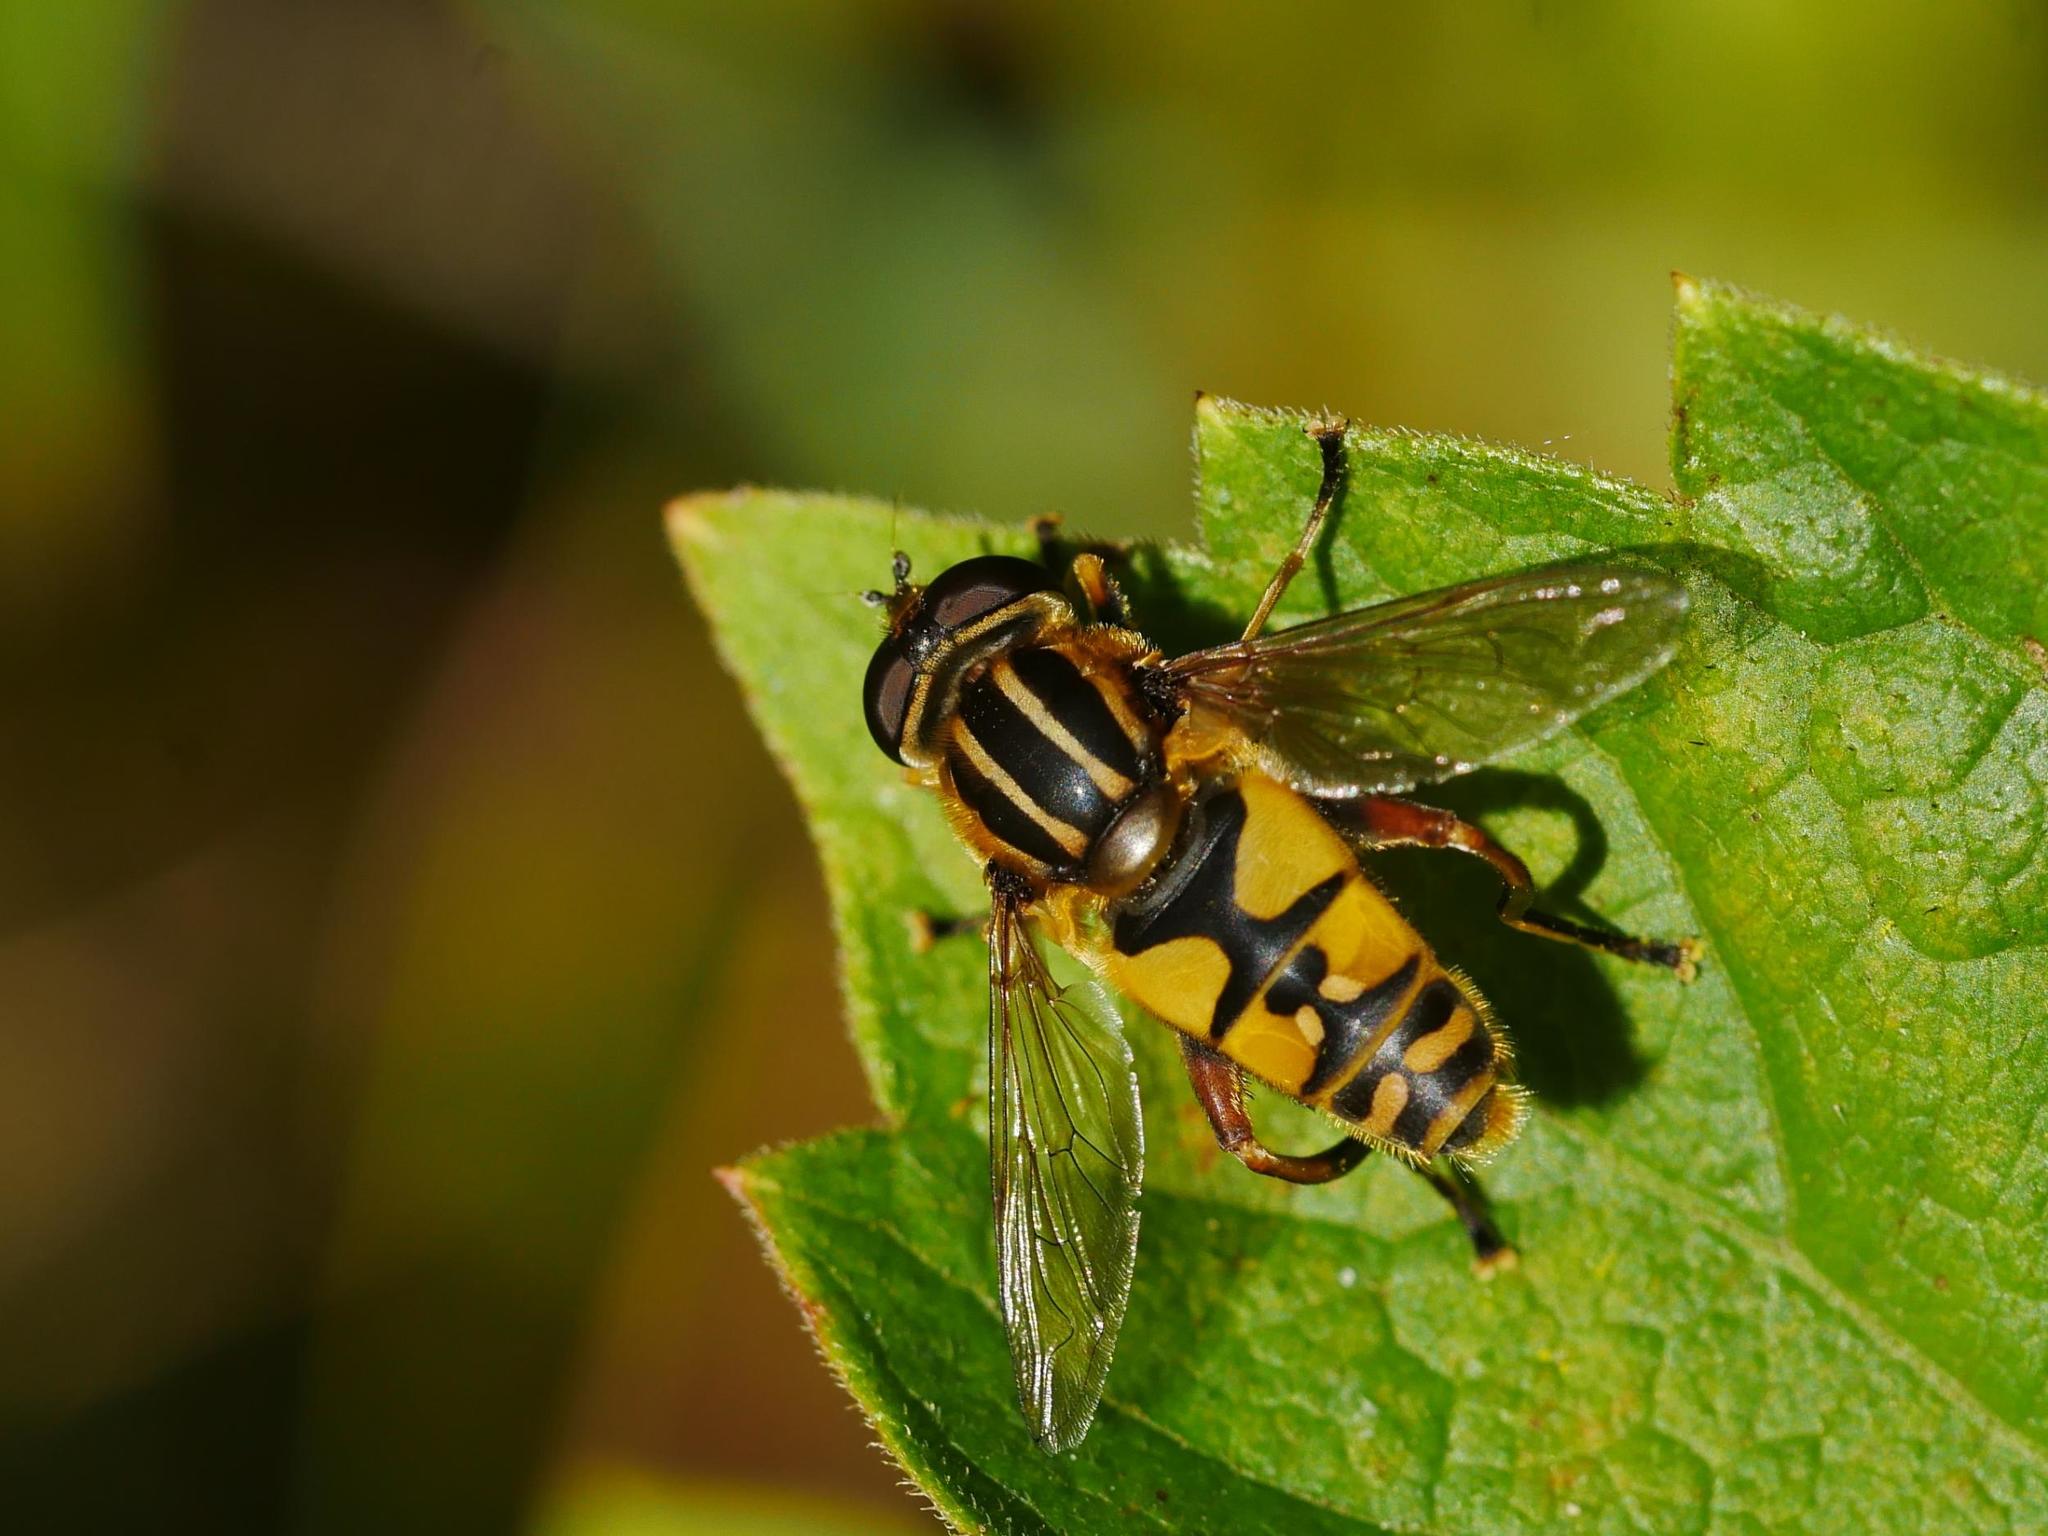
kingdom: Animalia
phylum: Arthropoda
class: Insecta
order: Diptera
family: Syrphidae
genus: Helophilus
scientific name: Helophilus pendulus
